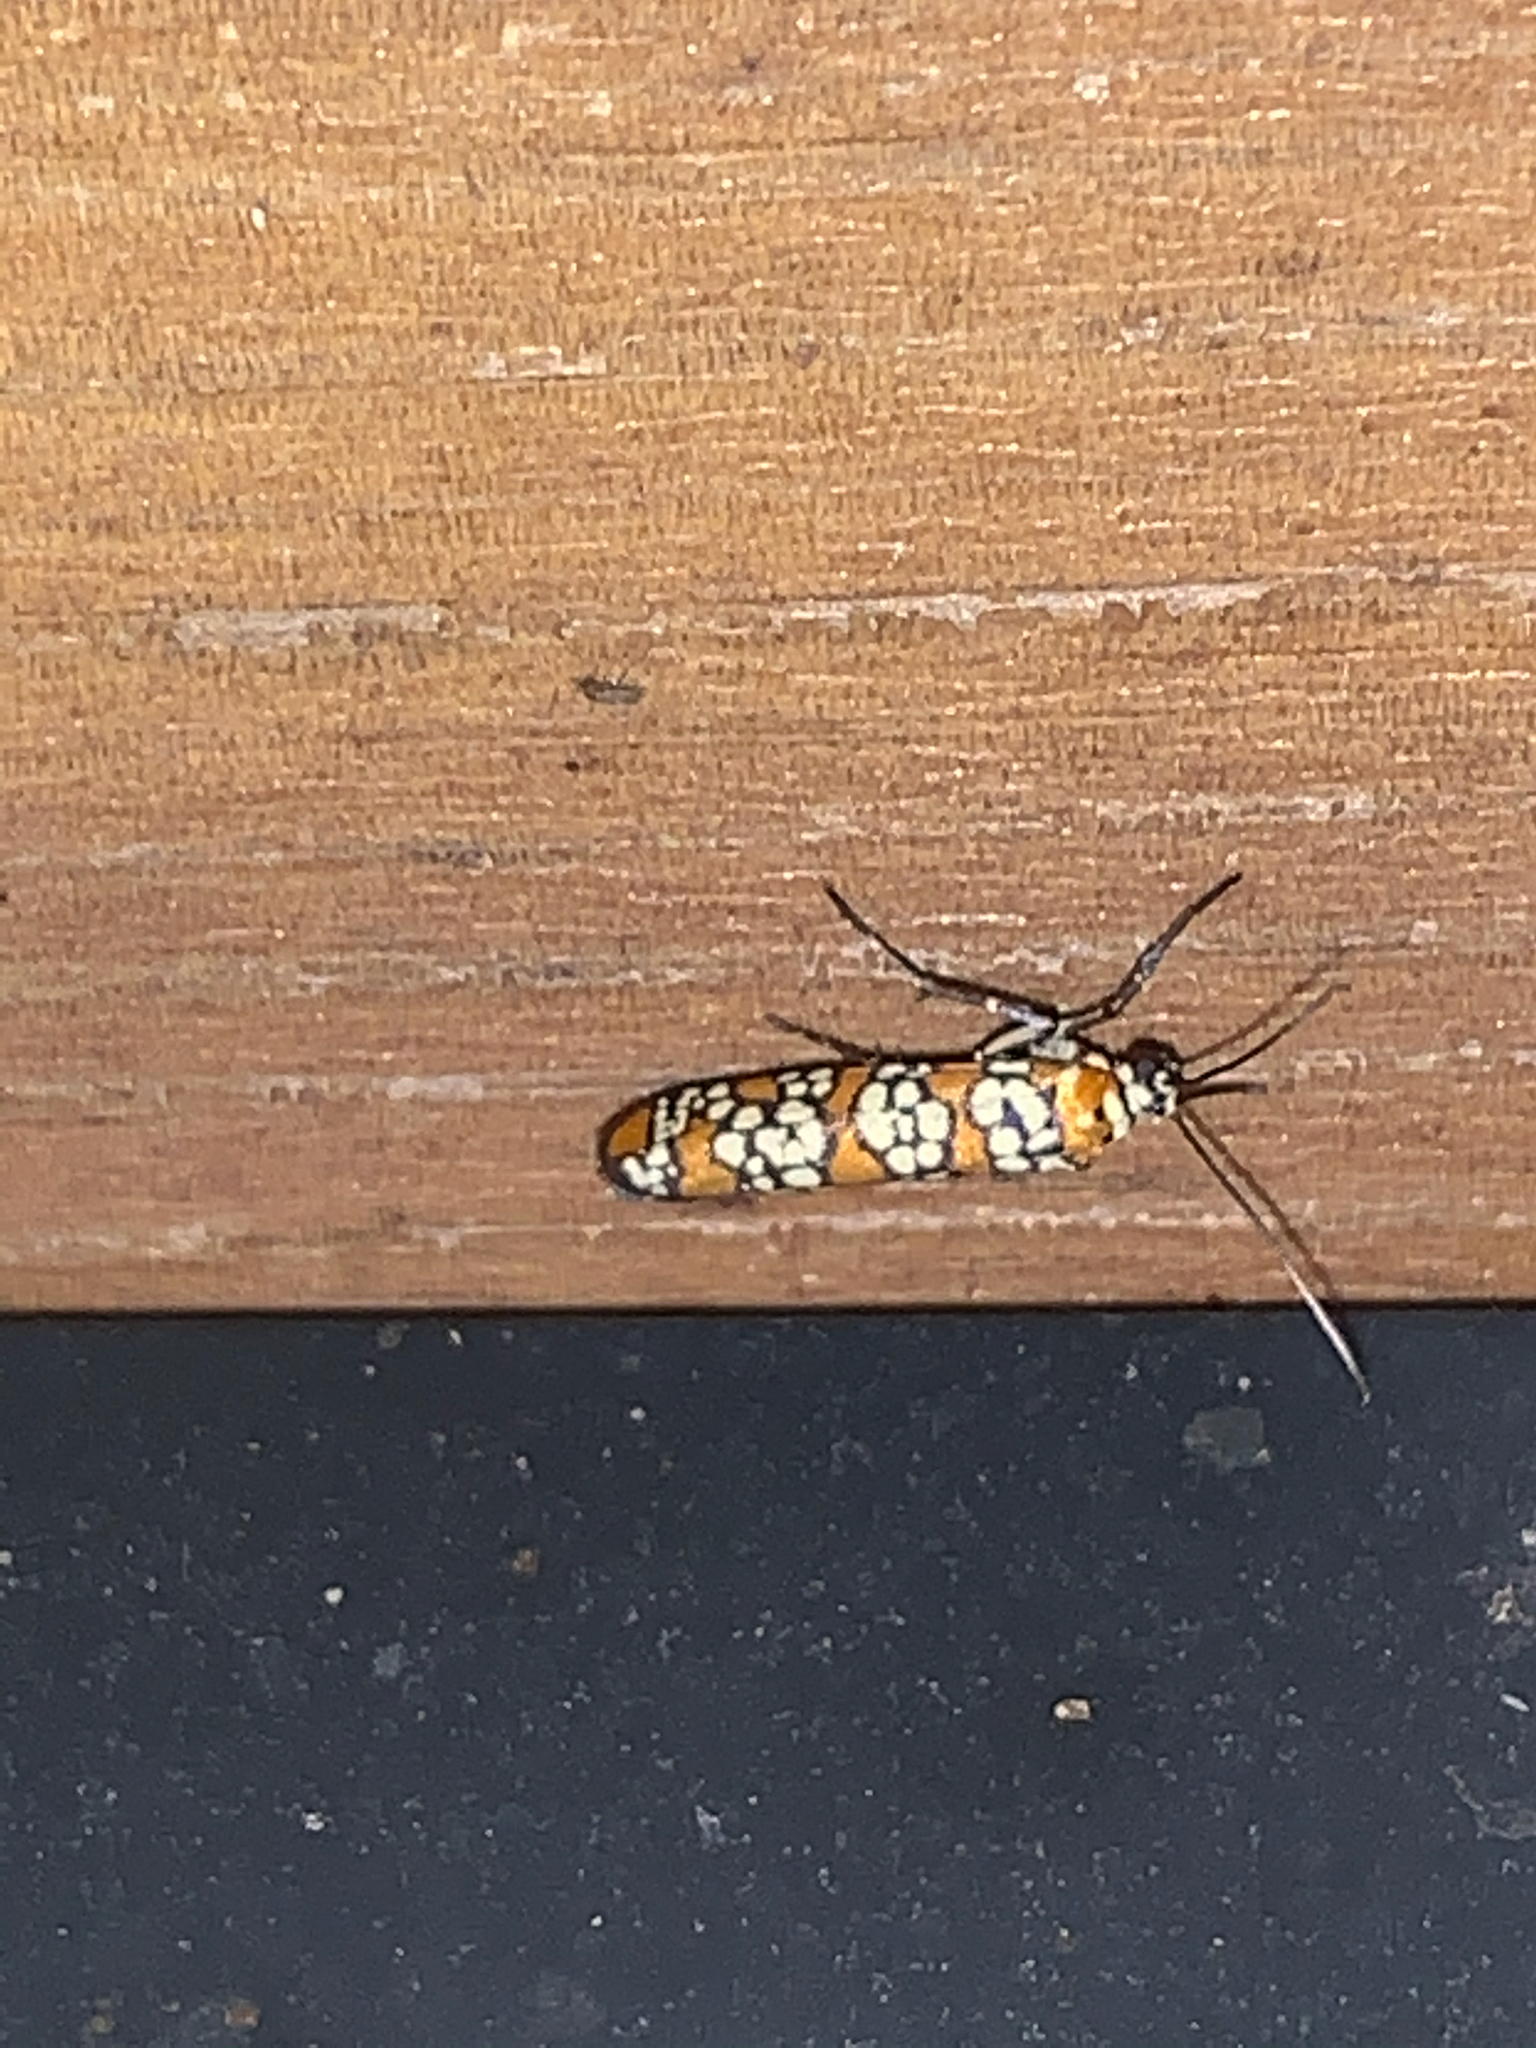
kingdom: Animalia
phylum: Arthropoda
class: Insecta
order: Lepidoptera
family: Attevidae
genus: Atteva
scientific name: Atteva punctella
